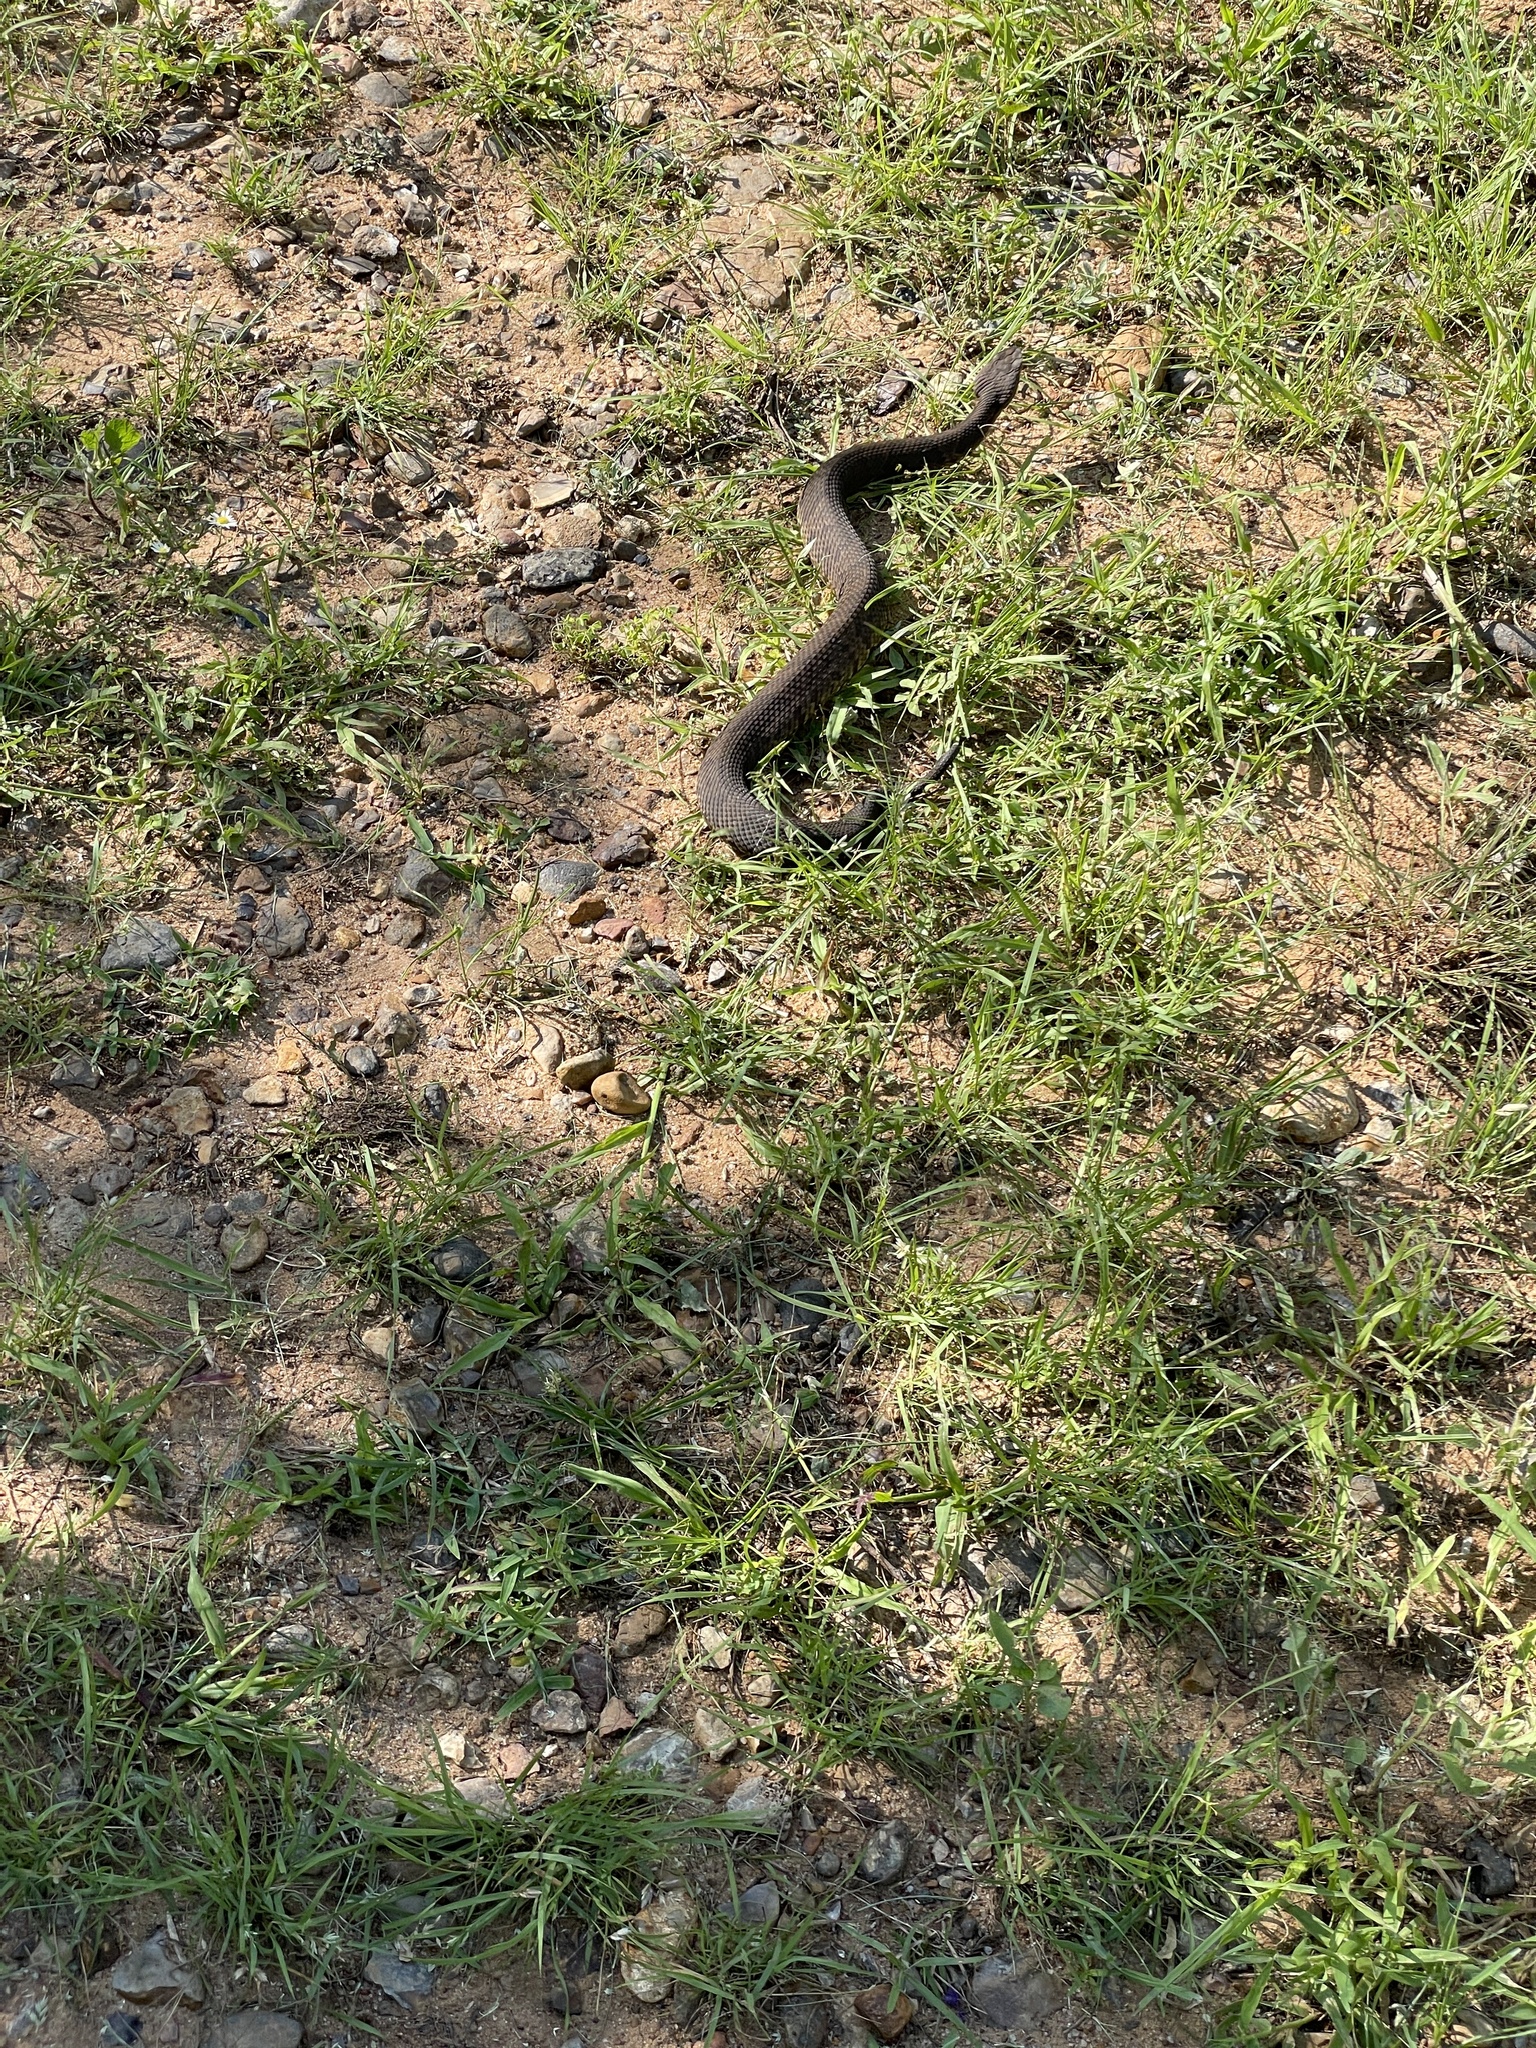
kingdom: Animalia
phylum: Chordata
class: Squamata
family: Viperidae
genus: Agkistrodon
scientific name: Agkistrodon piscivorus
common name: Cottonmouth
